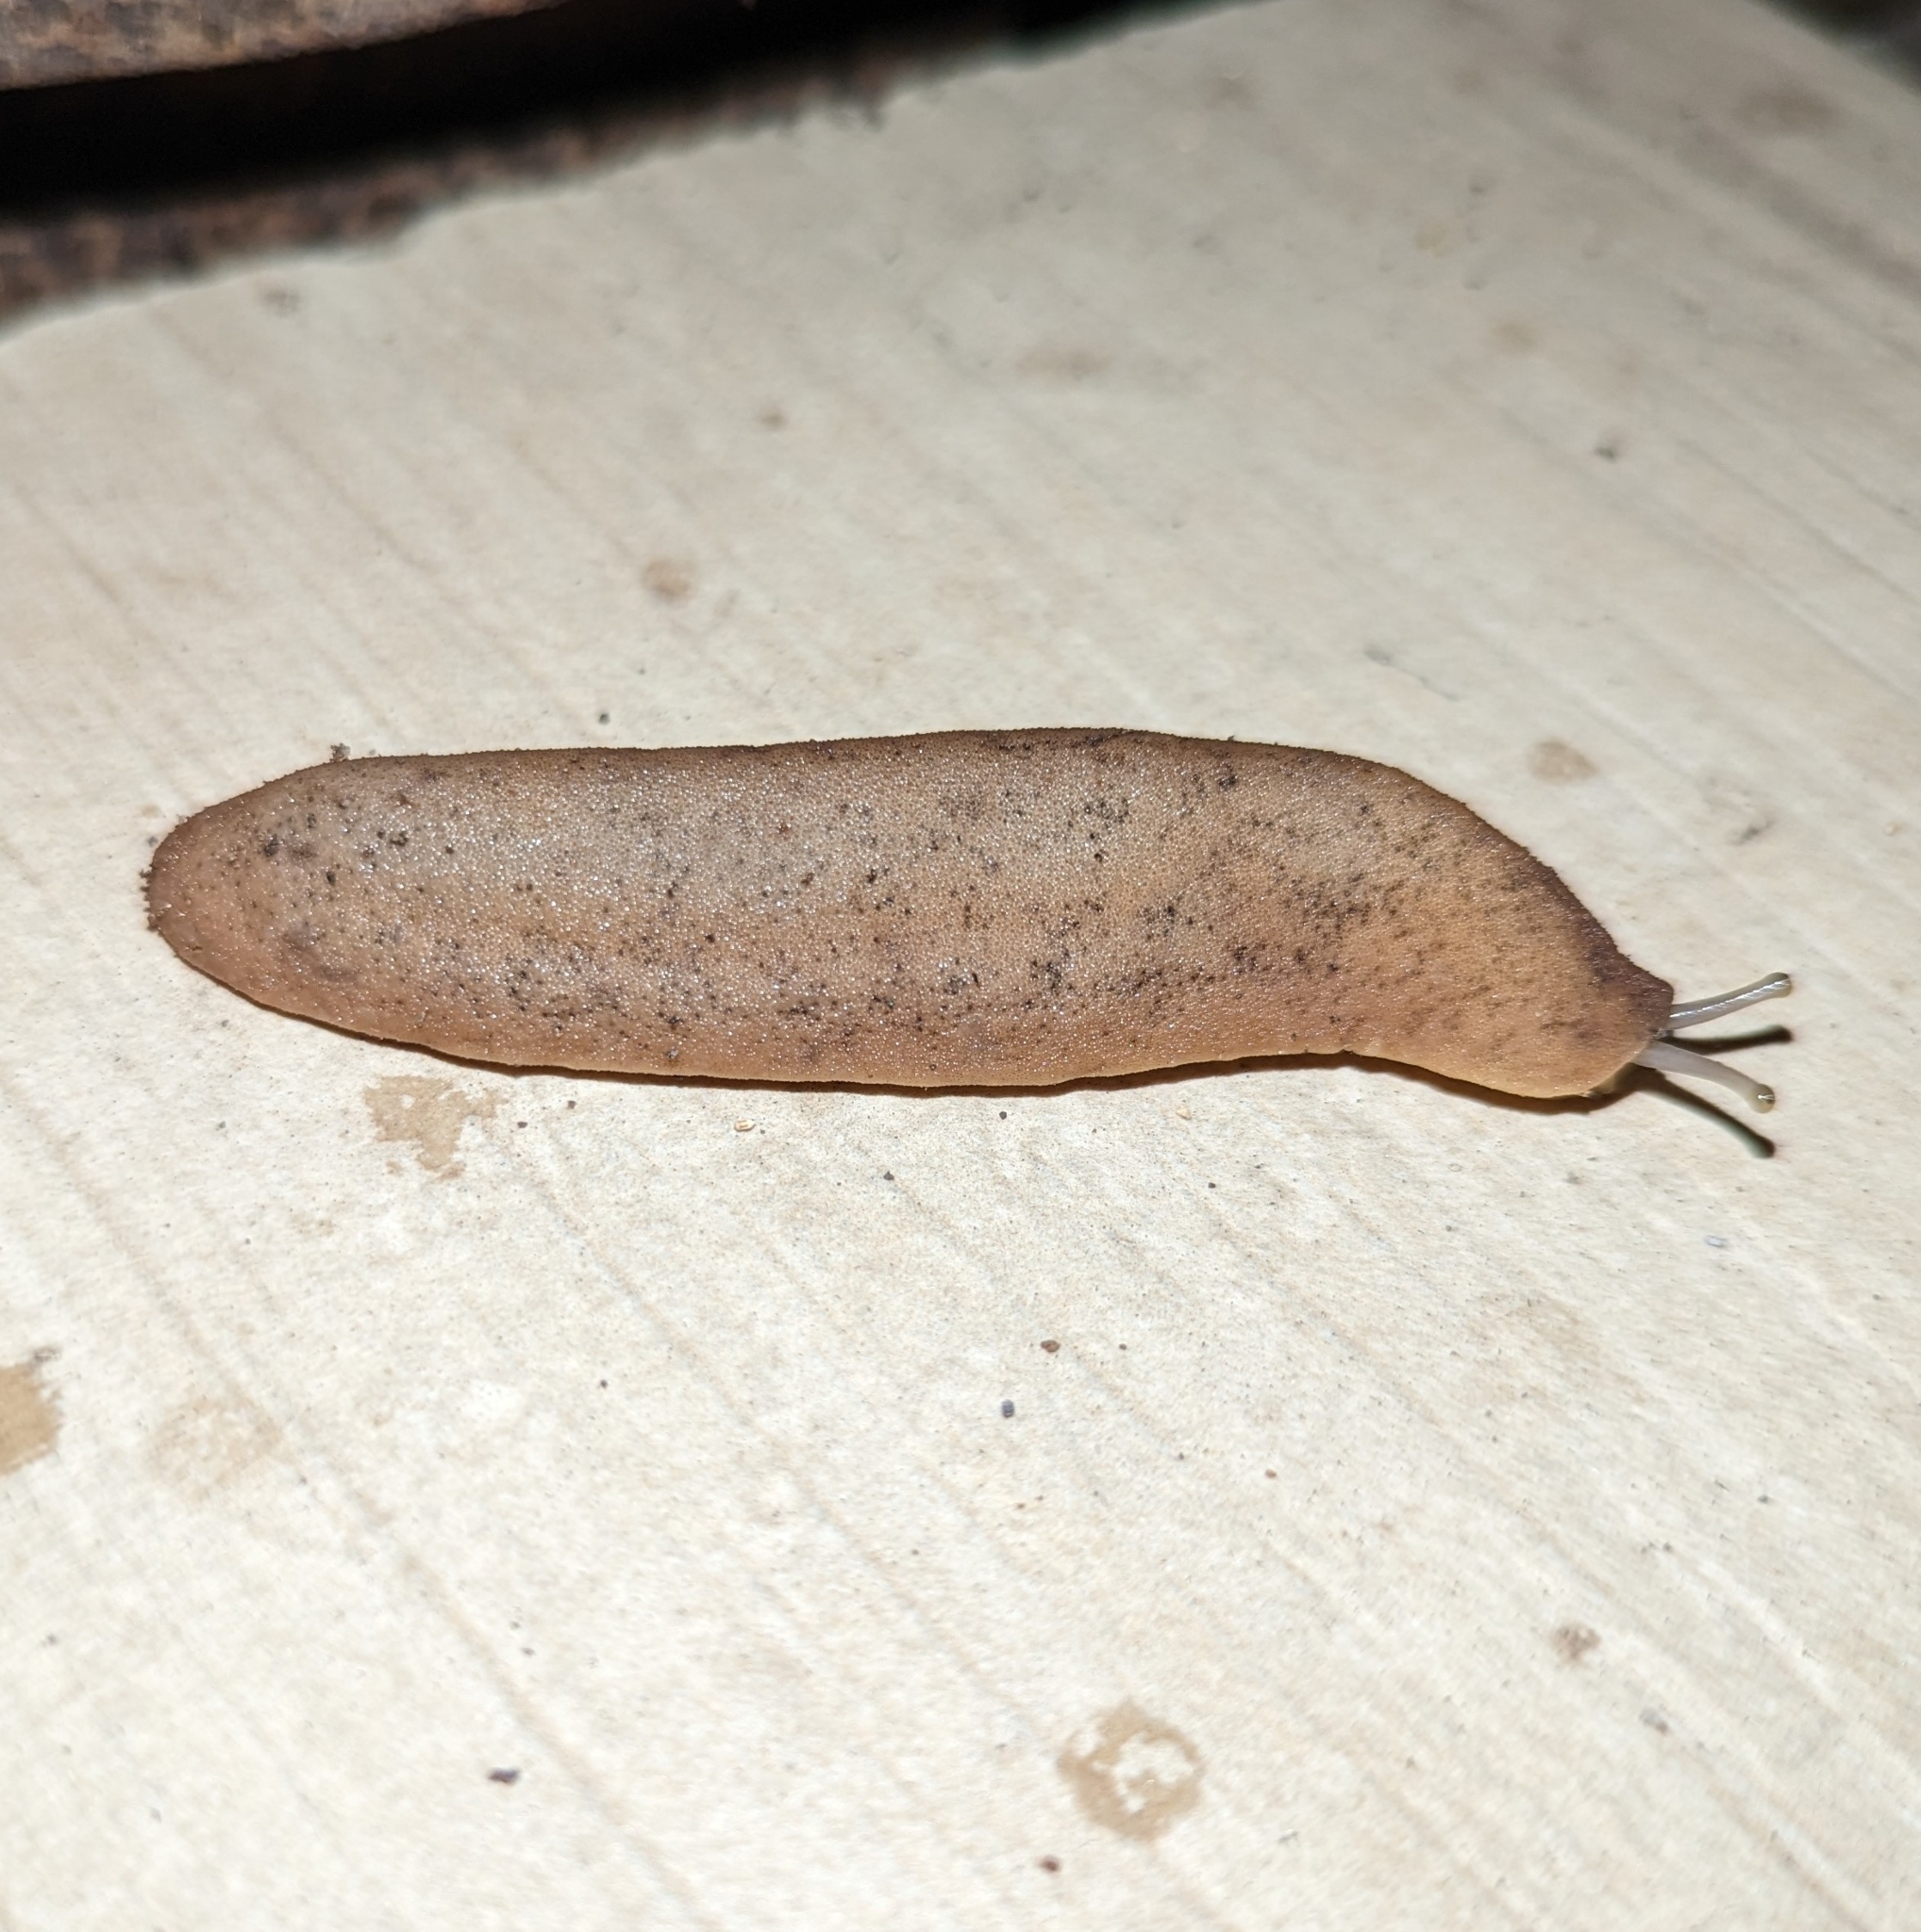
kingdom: Animalia
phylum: Mollusca
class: Gastropoda
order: Systellommatophora
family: Veronicellidae
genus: Sarasinula
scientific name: Sarasinula plebeia
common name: Caribbean leatherleaf
